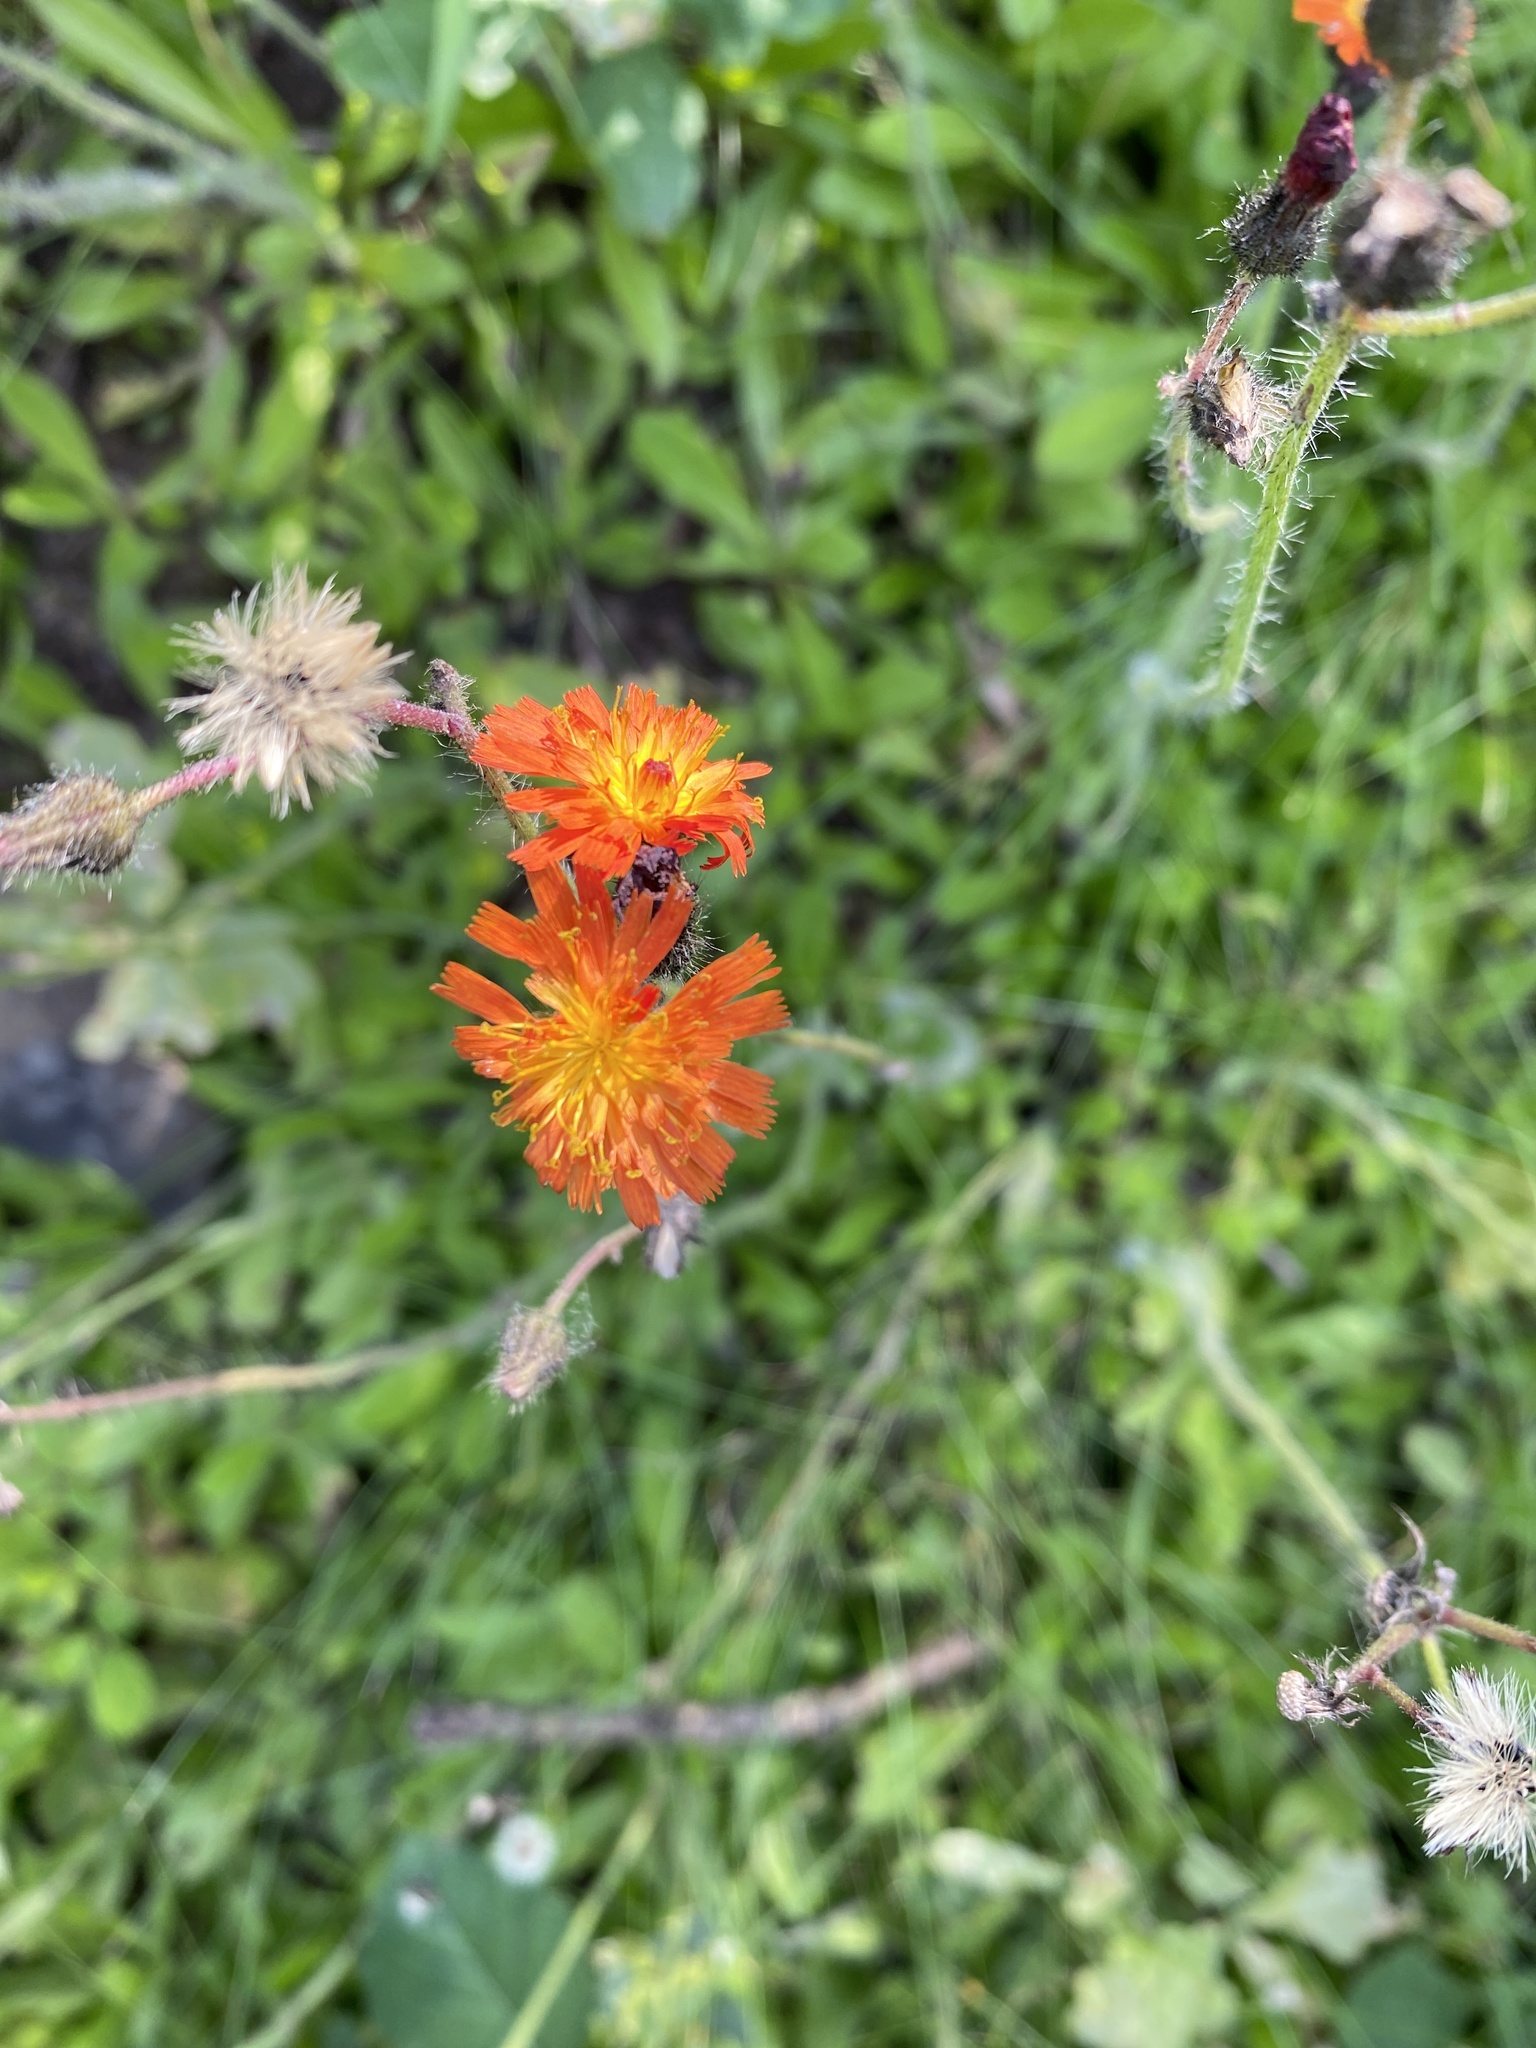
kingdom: Plantae
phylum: Tracheophyta
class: Magnoliopsida
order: Asterales
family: Asteraceae
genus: Pilosella
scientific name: Pilosella aurantiaca
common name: Fox-and-cubs
